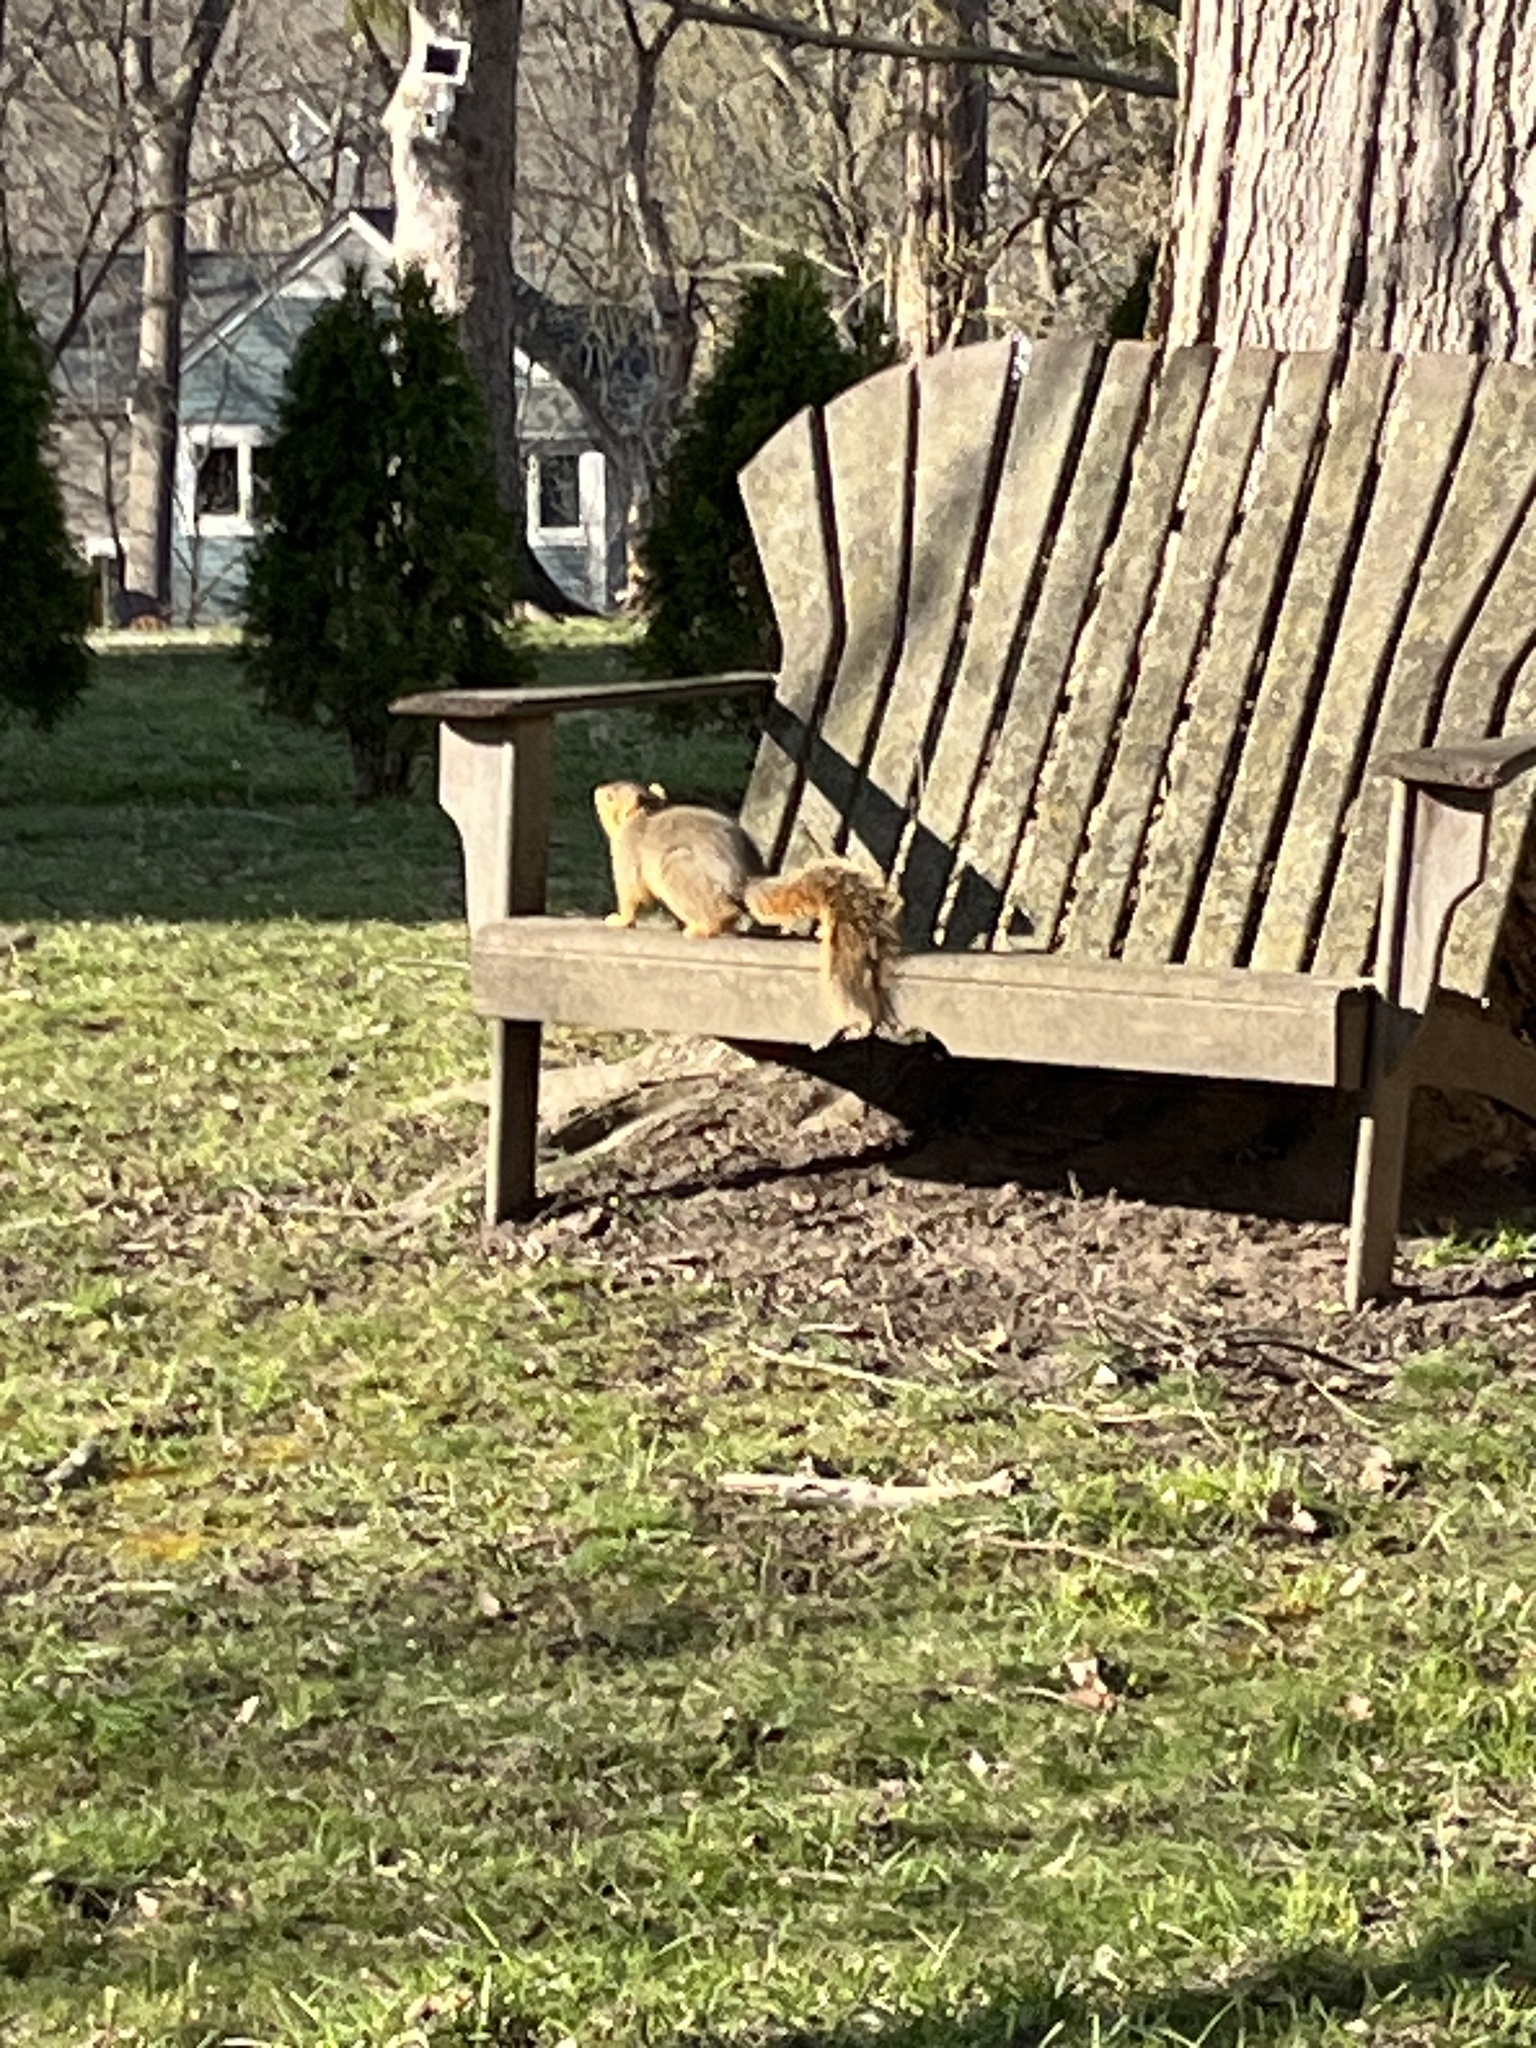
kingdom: Animalia
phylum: Chordata
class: Mammalia
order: Rodentia
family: Sciuridae
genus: Sciurus
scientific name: Sciurus niger
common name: Fox squirrel
